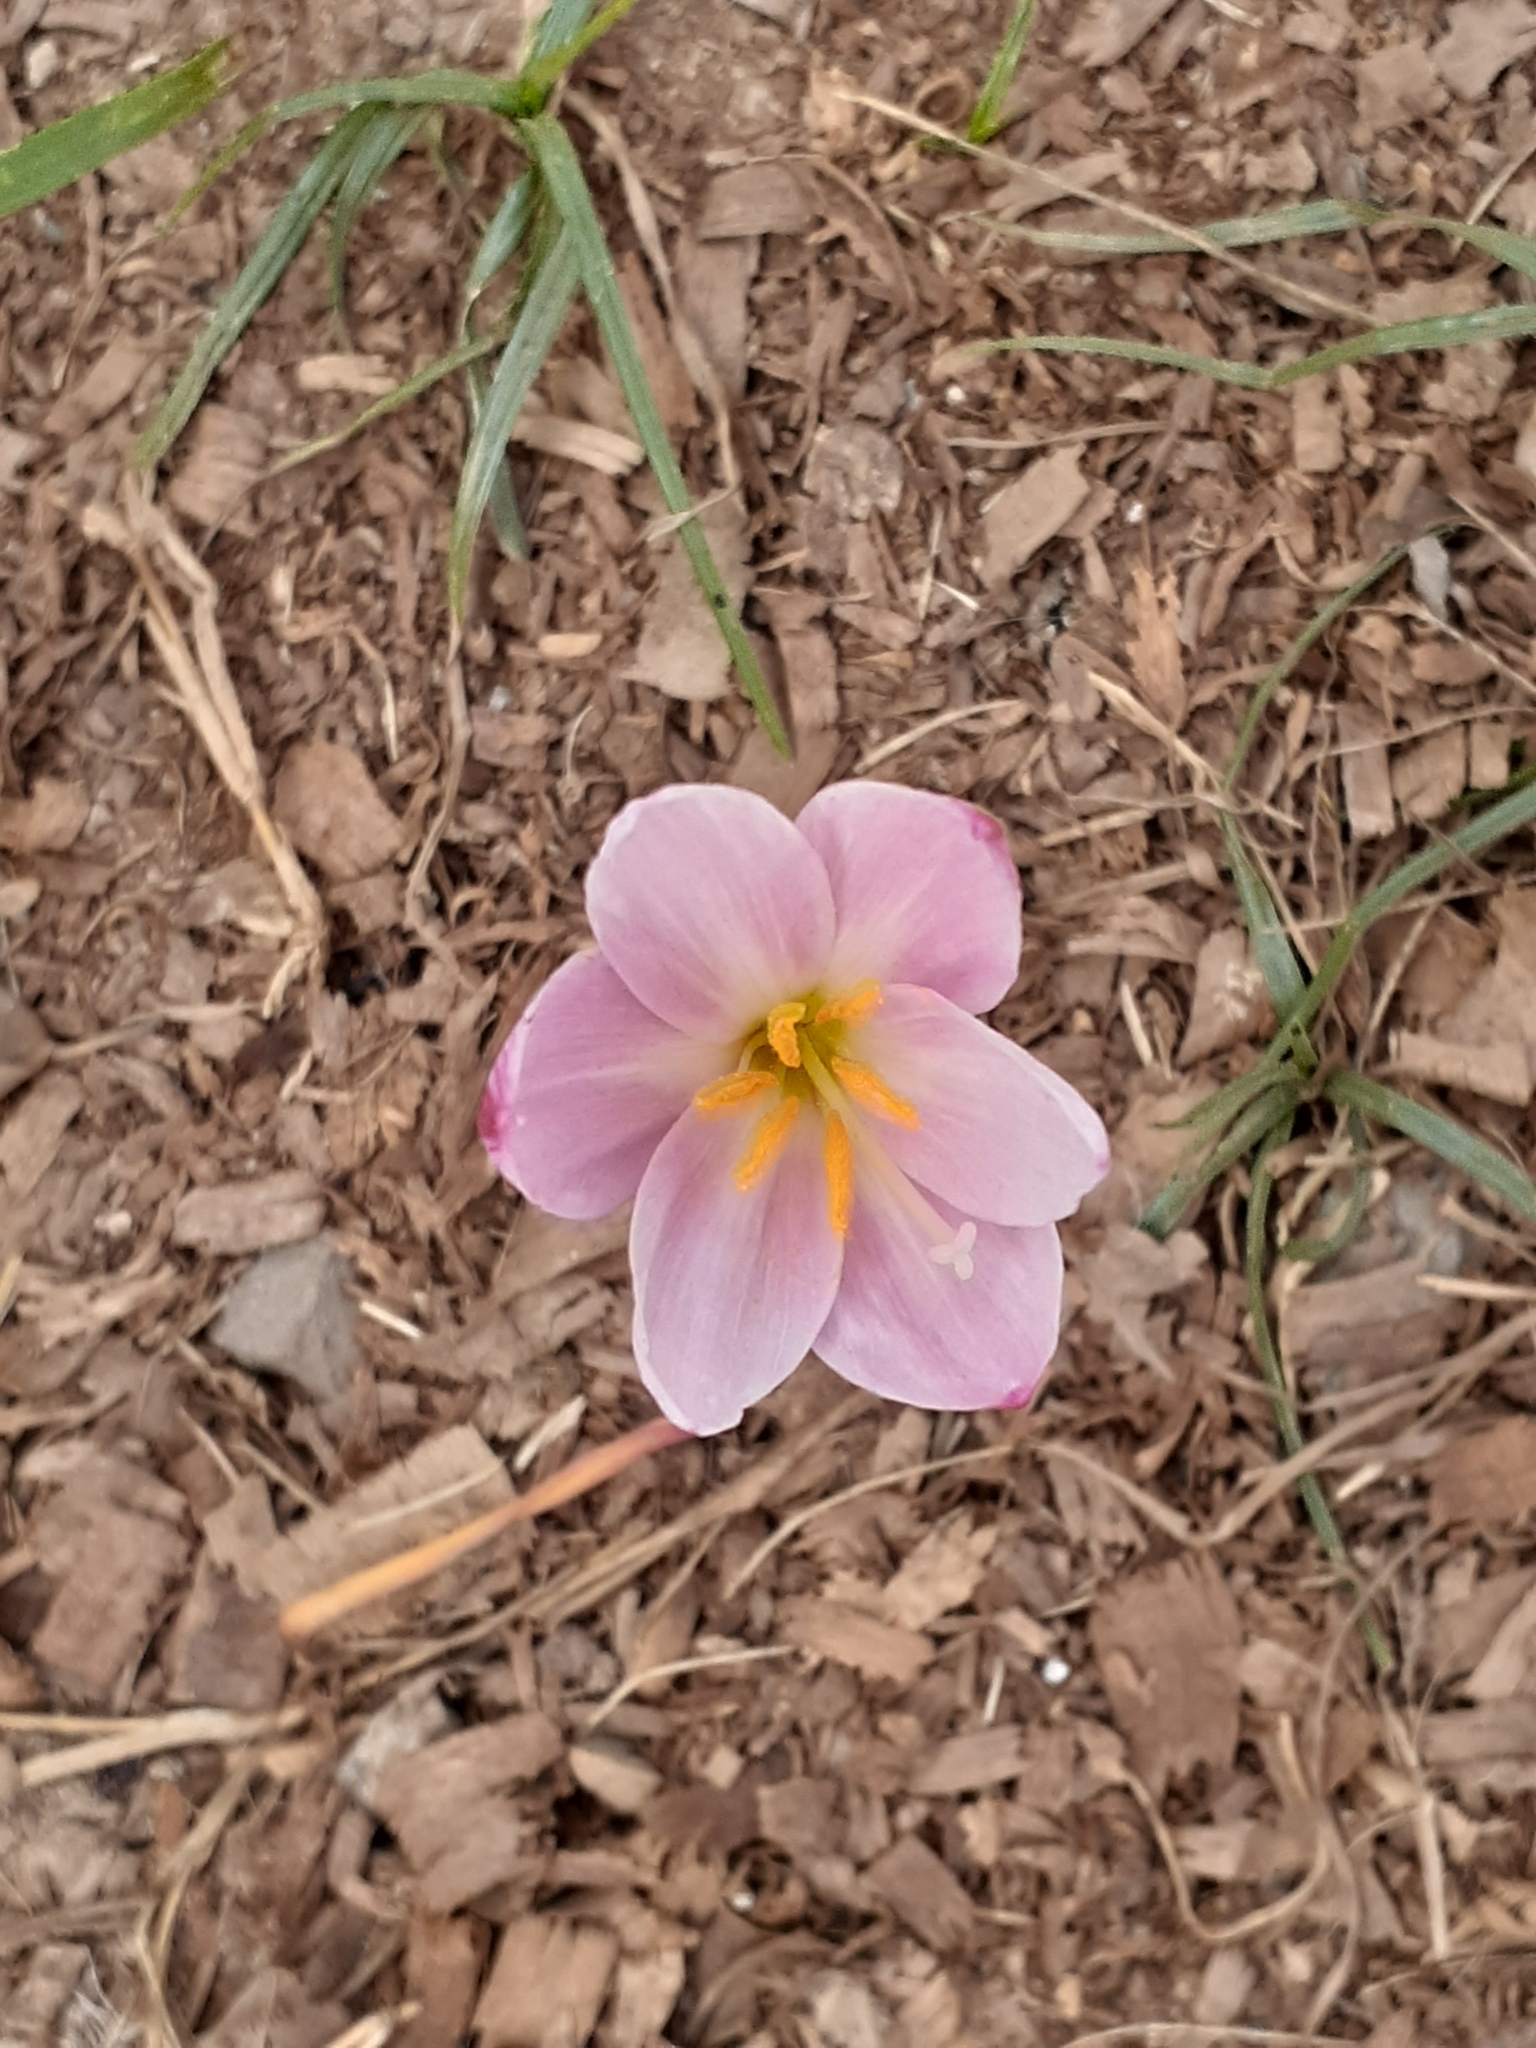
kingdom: Plantae
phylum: Tracheophyta
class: Liliopsida
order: Asparagales
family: Amaryllidaceae
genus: Zephyranthes
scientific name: Zephyranthes carinata
